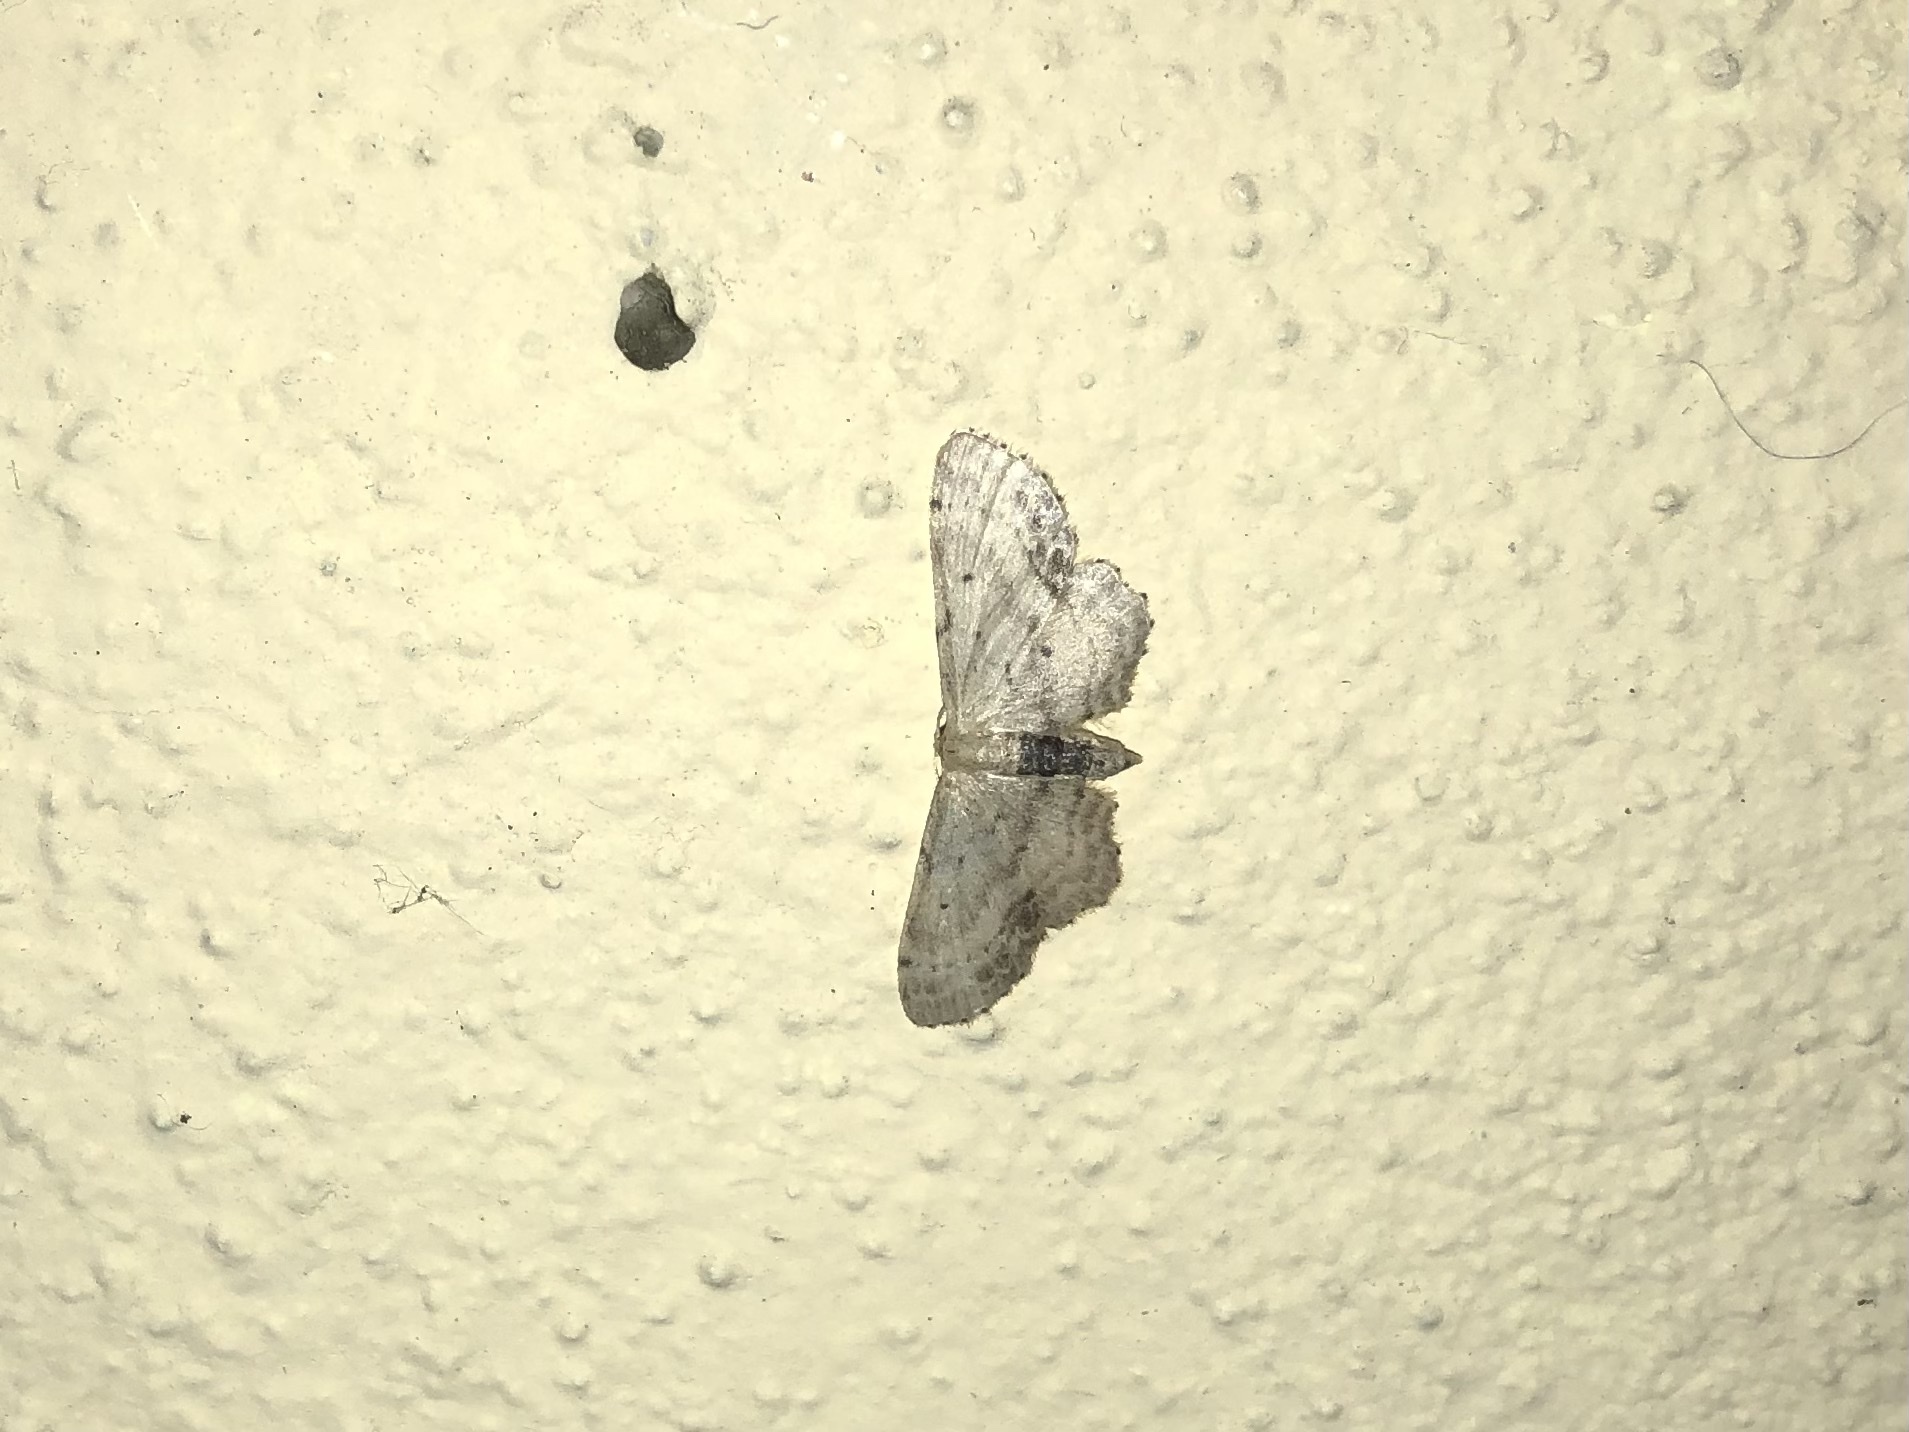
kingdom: Animalia
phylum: Arthropoda
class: Insecta
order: Lepidoptera
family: Geometridae
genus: Idaea
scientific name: Idaea dimidiata
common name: Single-dotted wave
